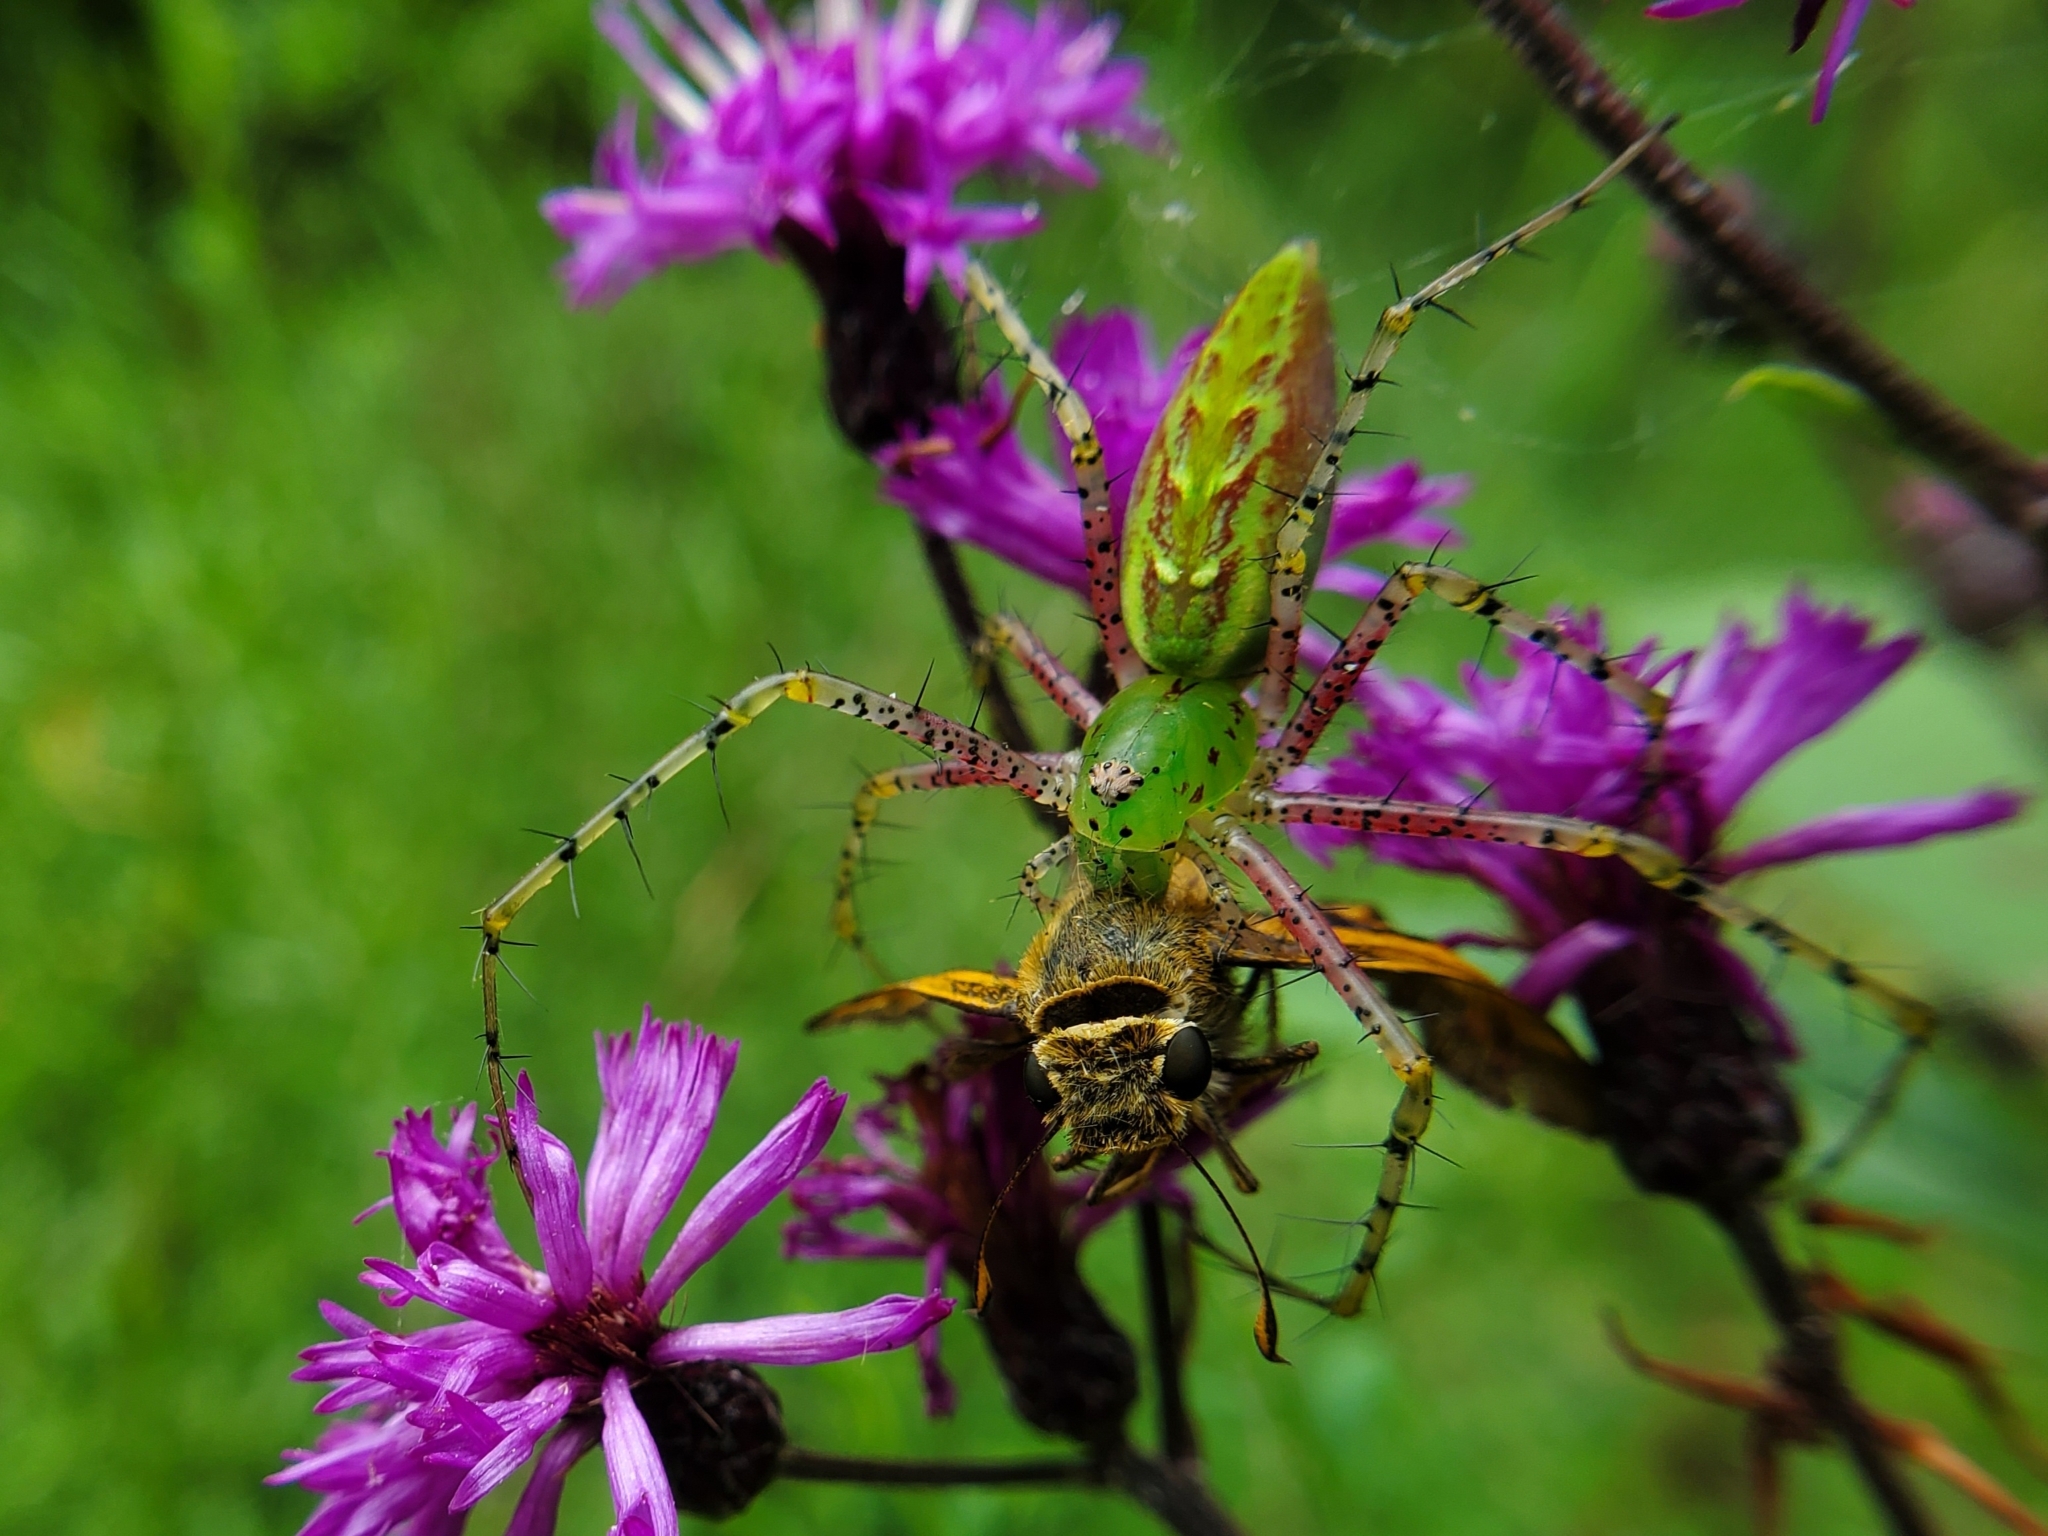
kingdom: Animalia
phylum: Arthropoda
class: Arachnida
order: Araneae
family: Oxyopidae
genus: Peucetia
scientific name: Peucetia viridans
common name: Lynx spiders
